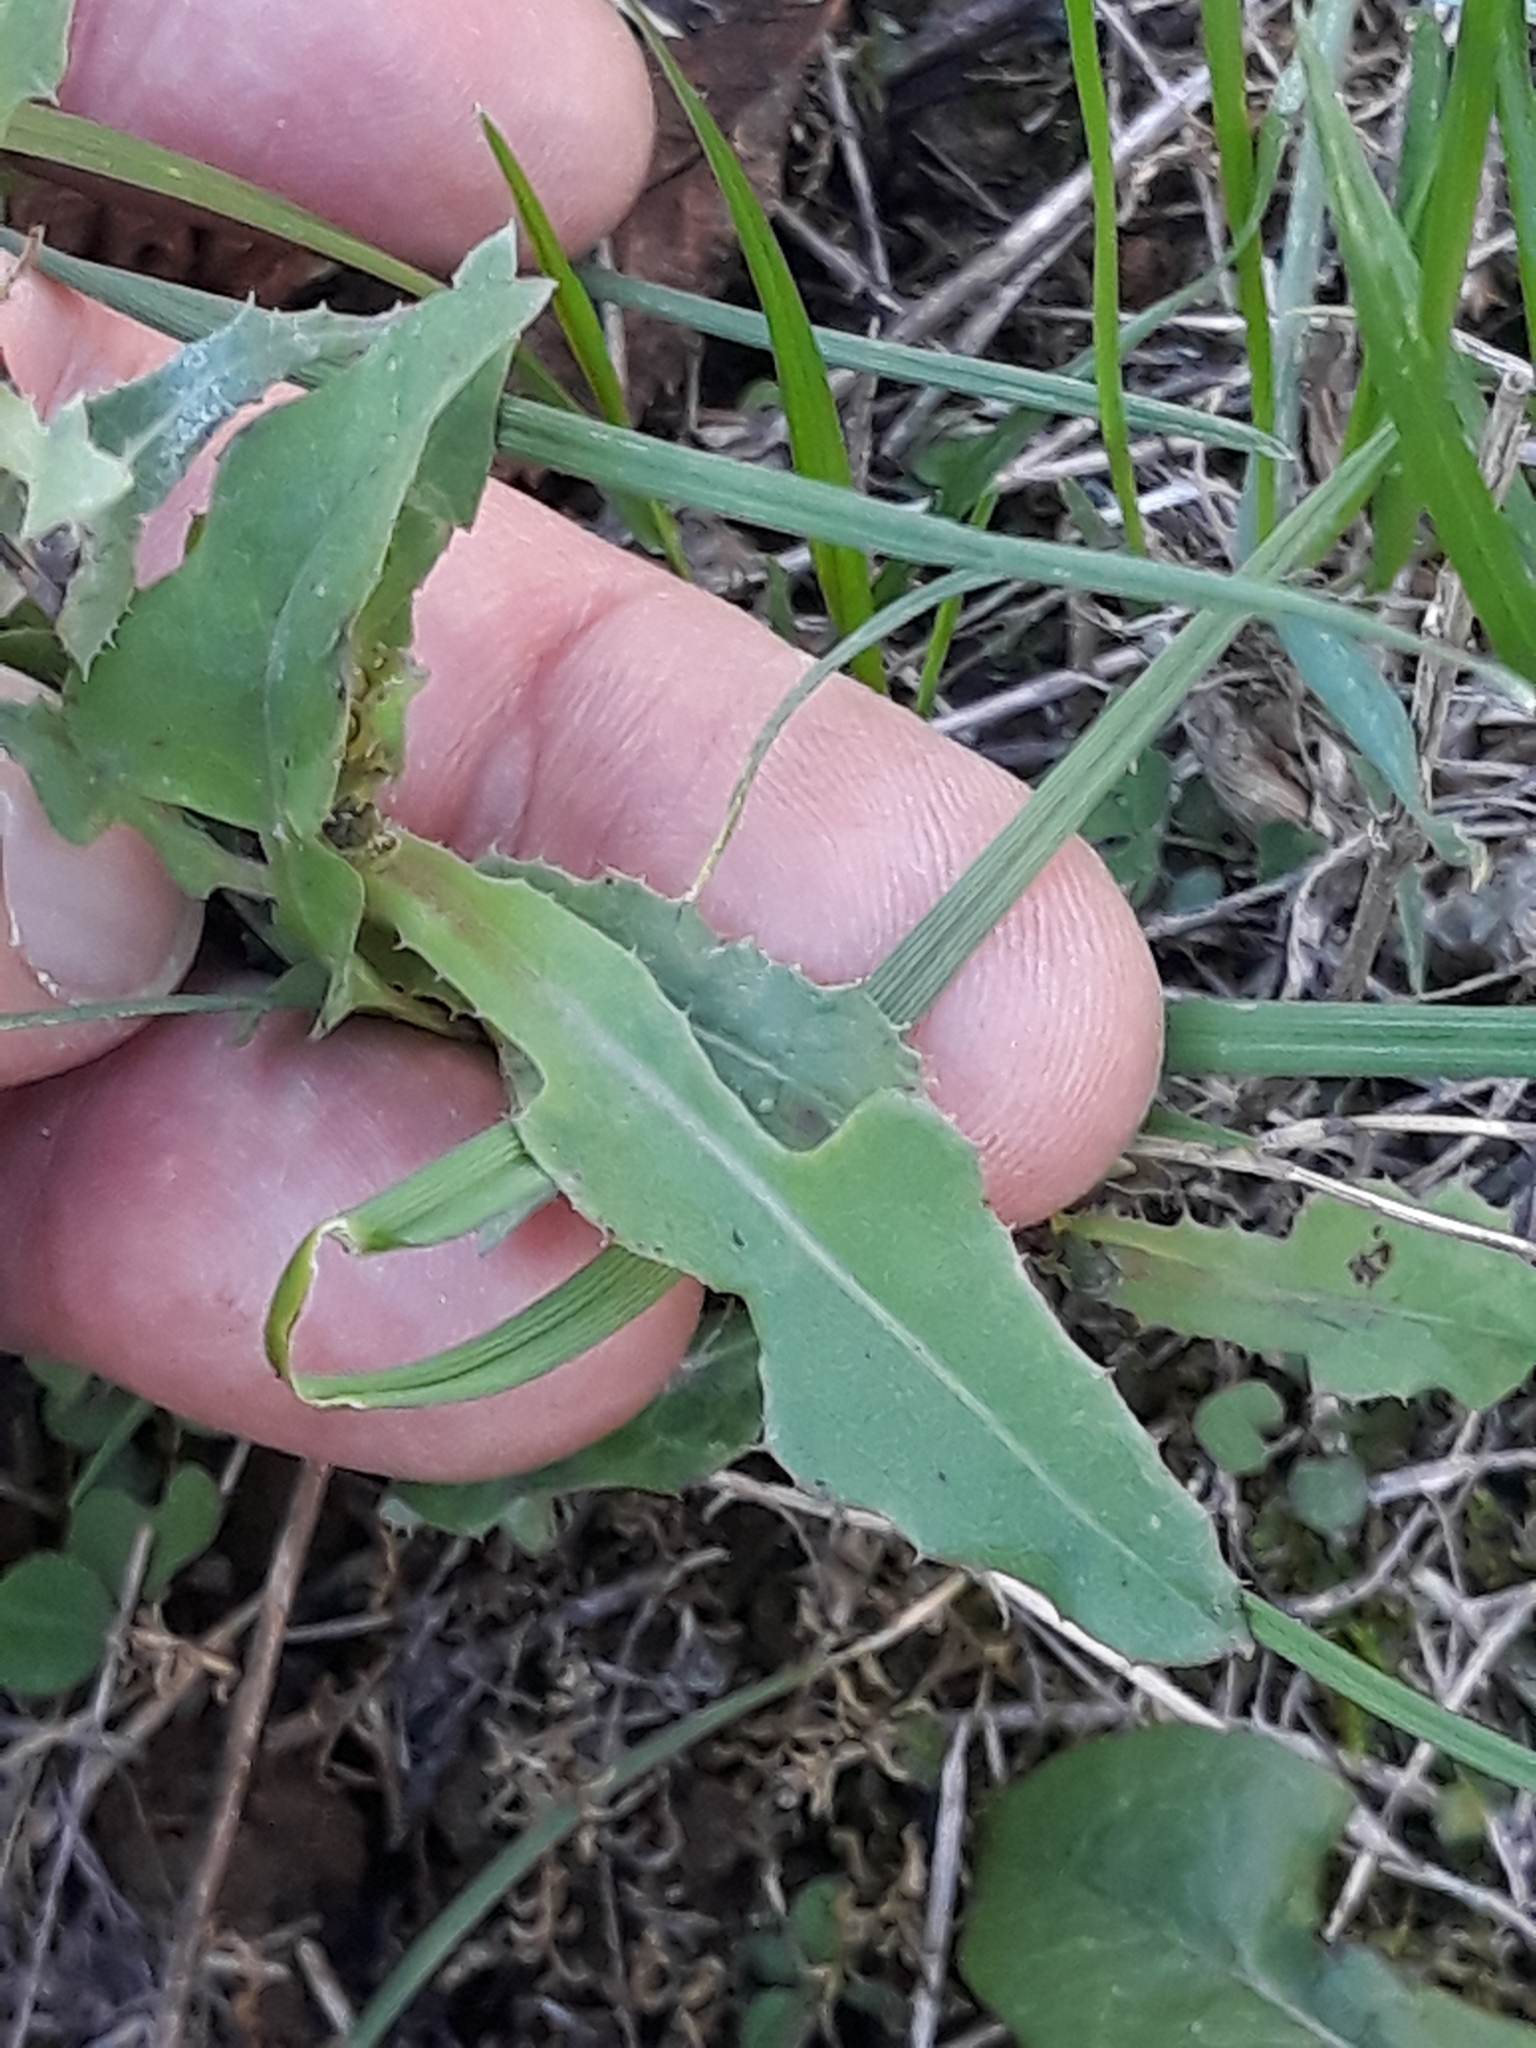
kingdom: Plantae
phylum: Tracheophyta
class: Magnoliopsida
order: Asterales
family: Asteraceae
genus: Sonchus
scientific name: Sonchus oleraceus
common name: Common sowthistle
